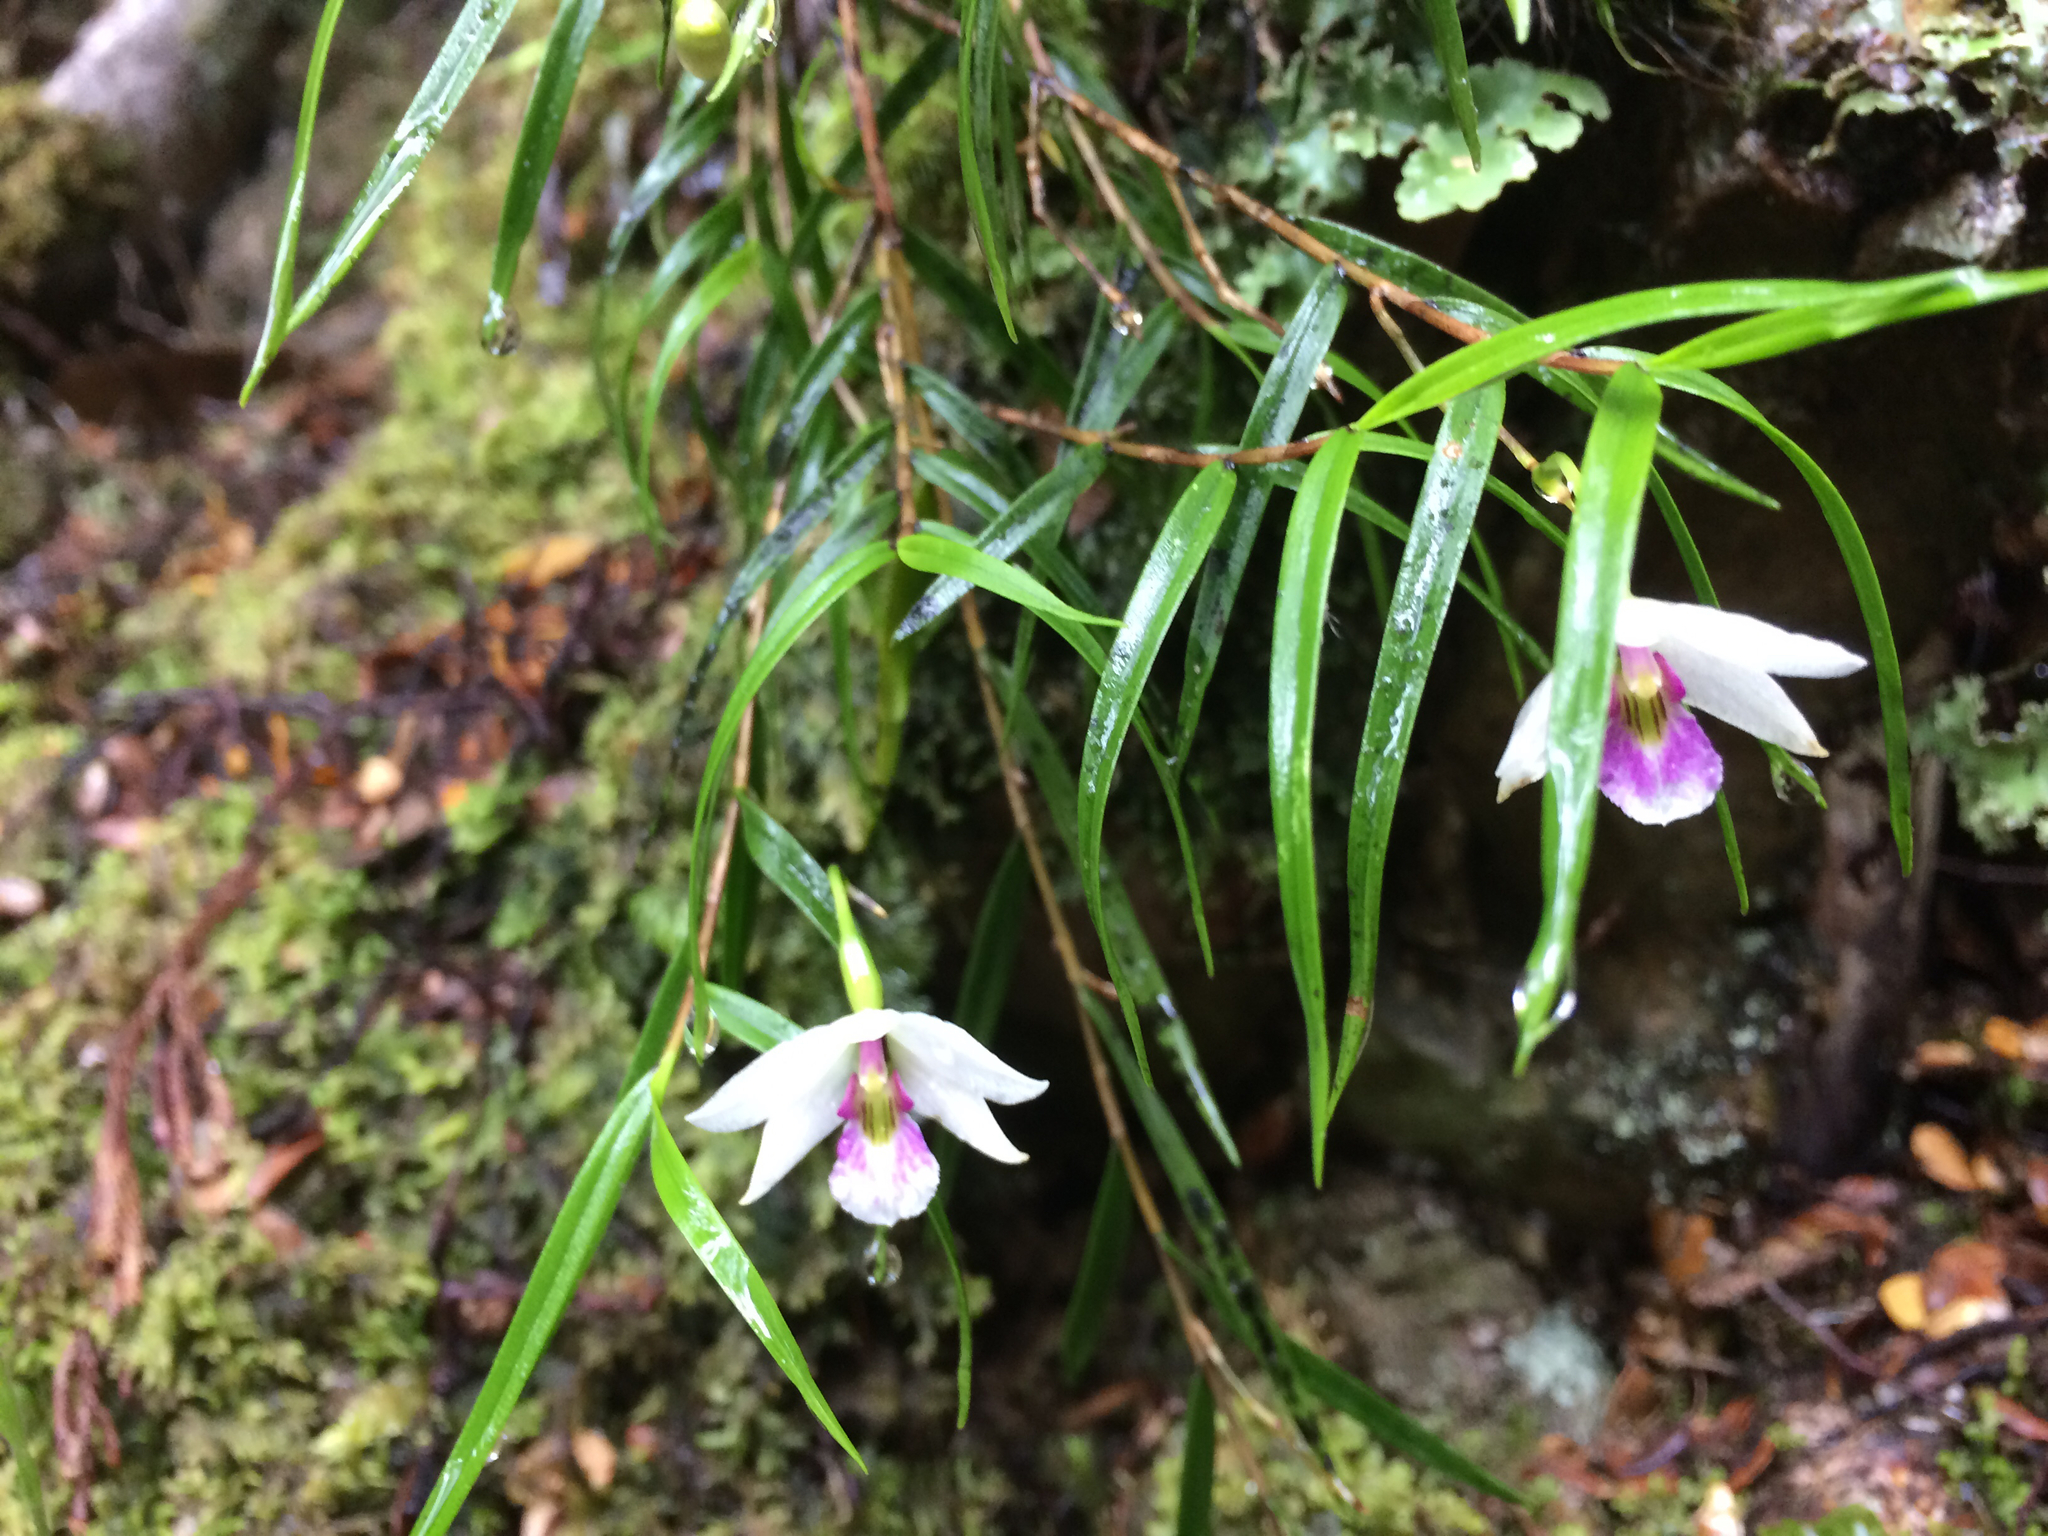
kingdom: Plantae
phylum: Tracheophyta
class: Liliopsida
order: Asparagales
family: Orchidaceae
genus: Dendrobium
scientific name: Dendrobium cunninghamii
